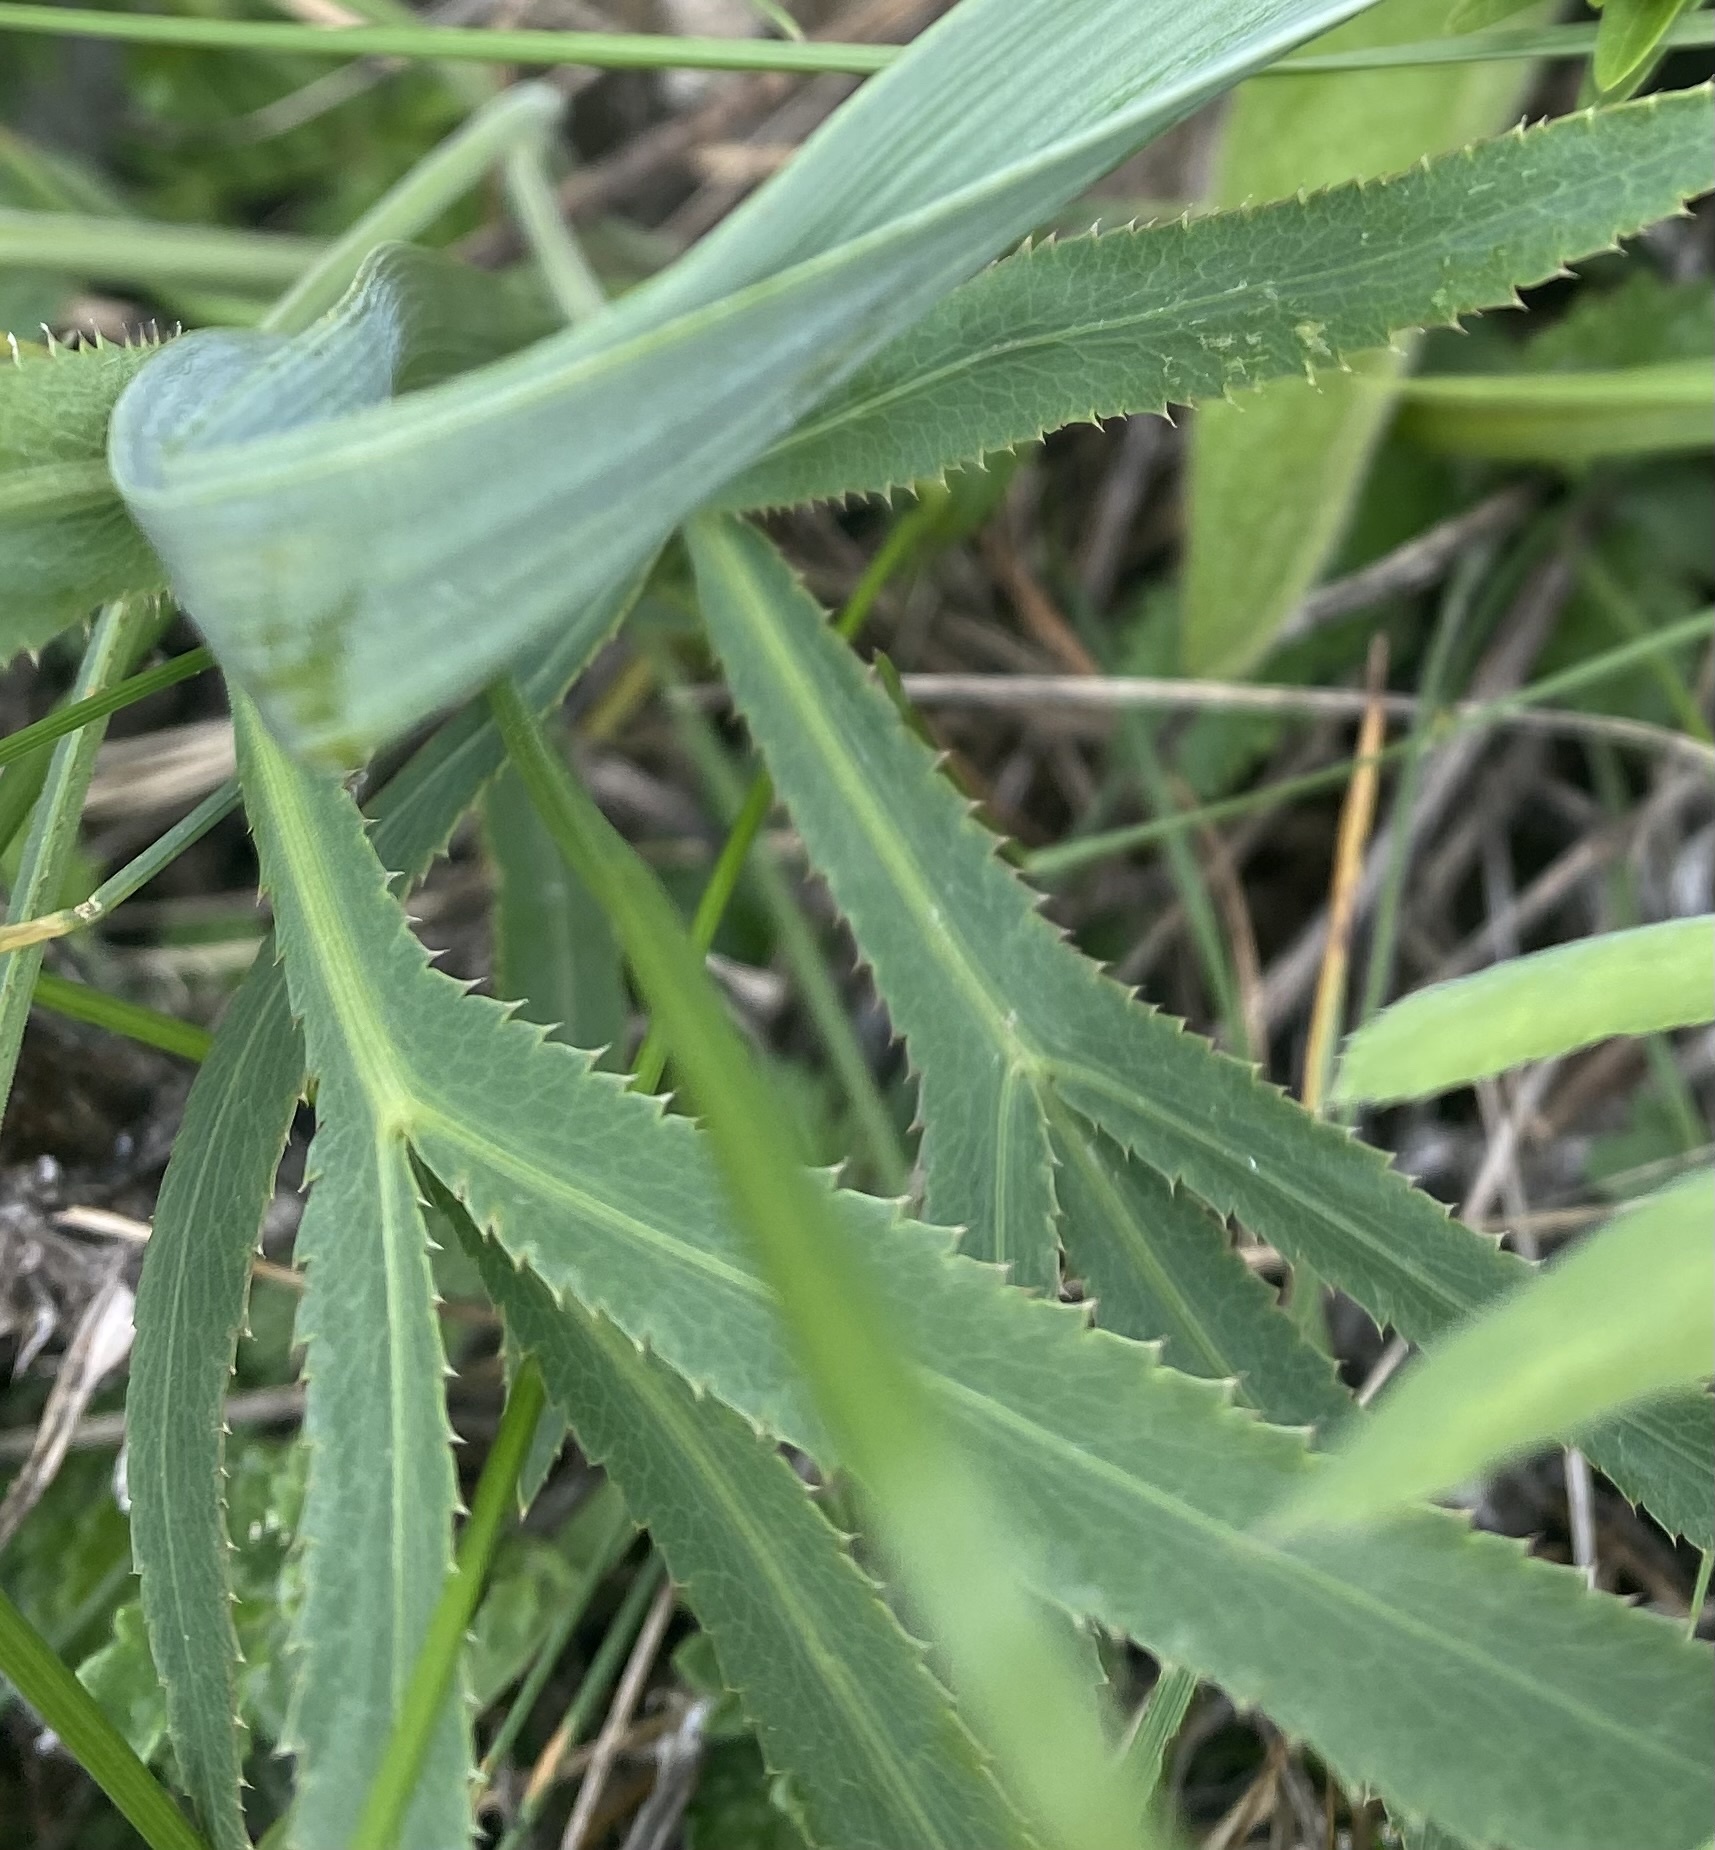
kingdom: Plantae
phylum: Tracheophyta
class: Magnoliopsida
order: Apiales
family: Apiaceae
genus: Falcaria
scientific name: Falcaria vulgaris
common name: Longleaf
